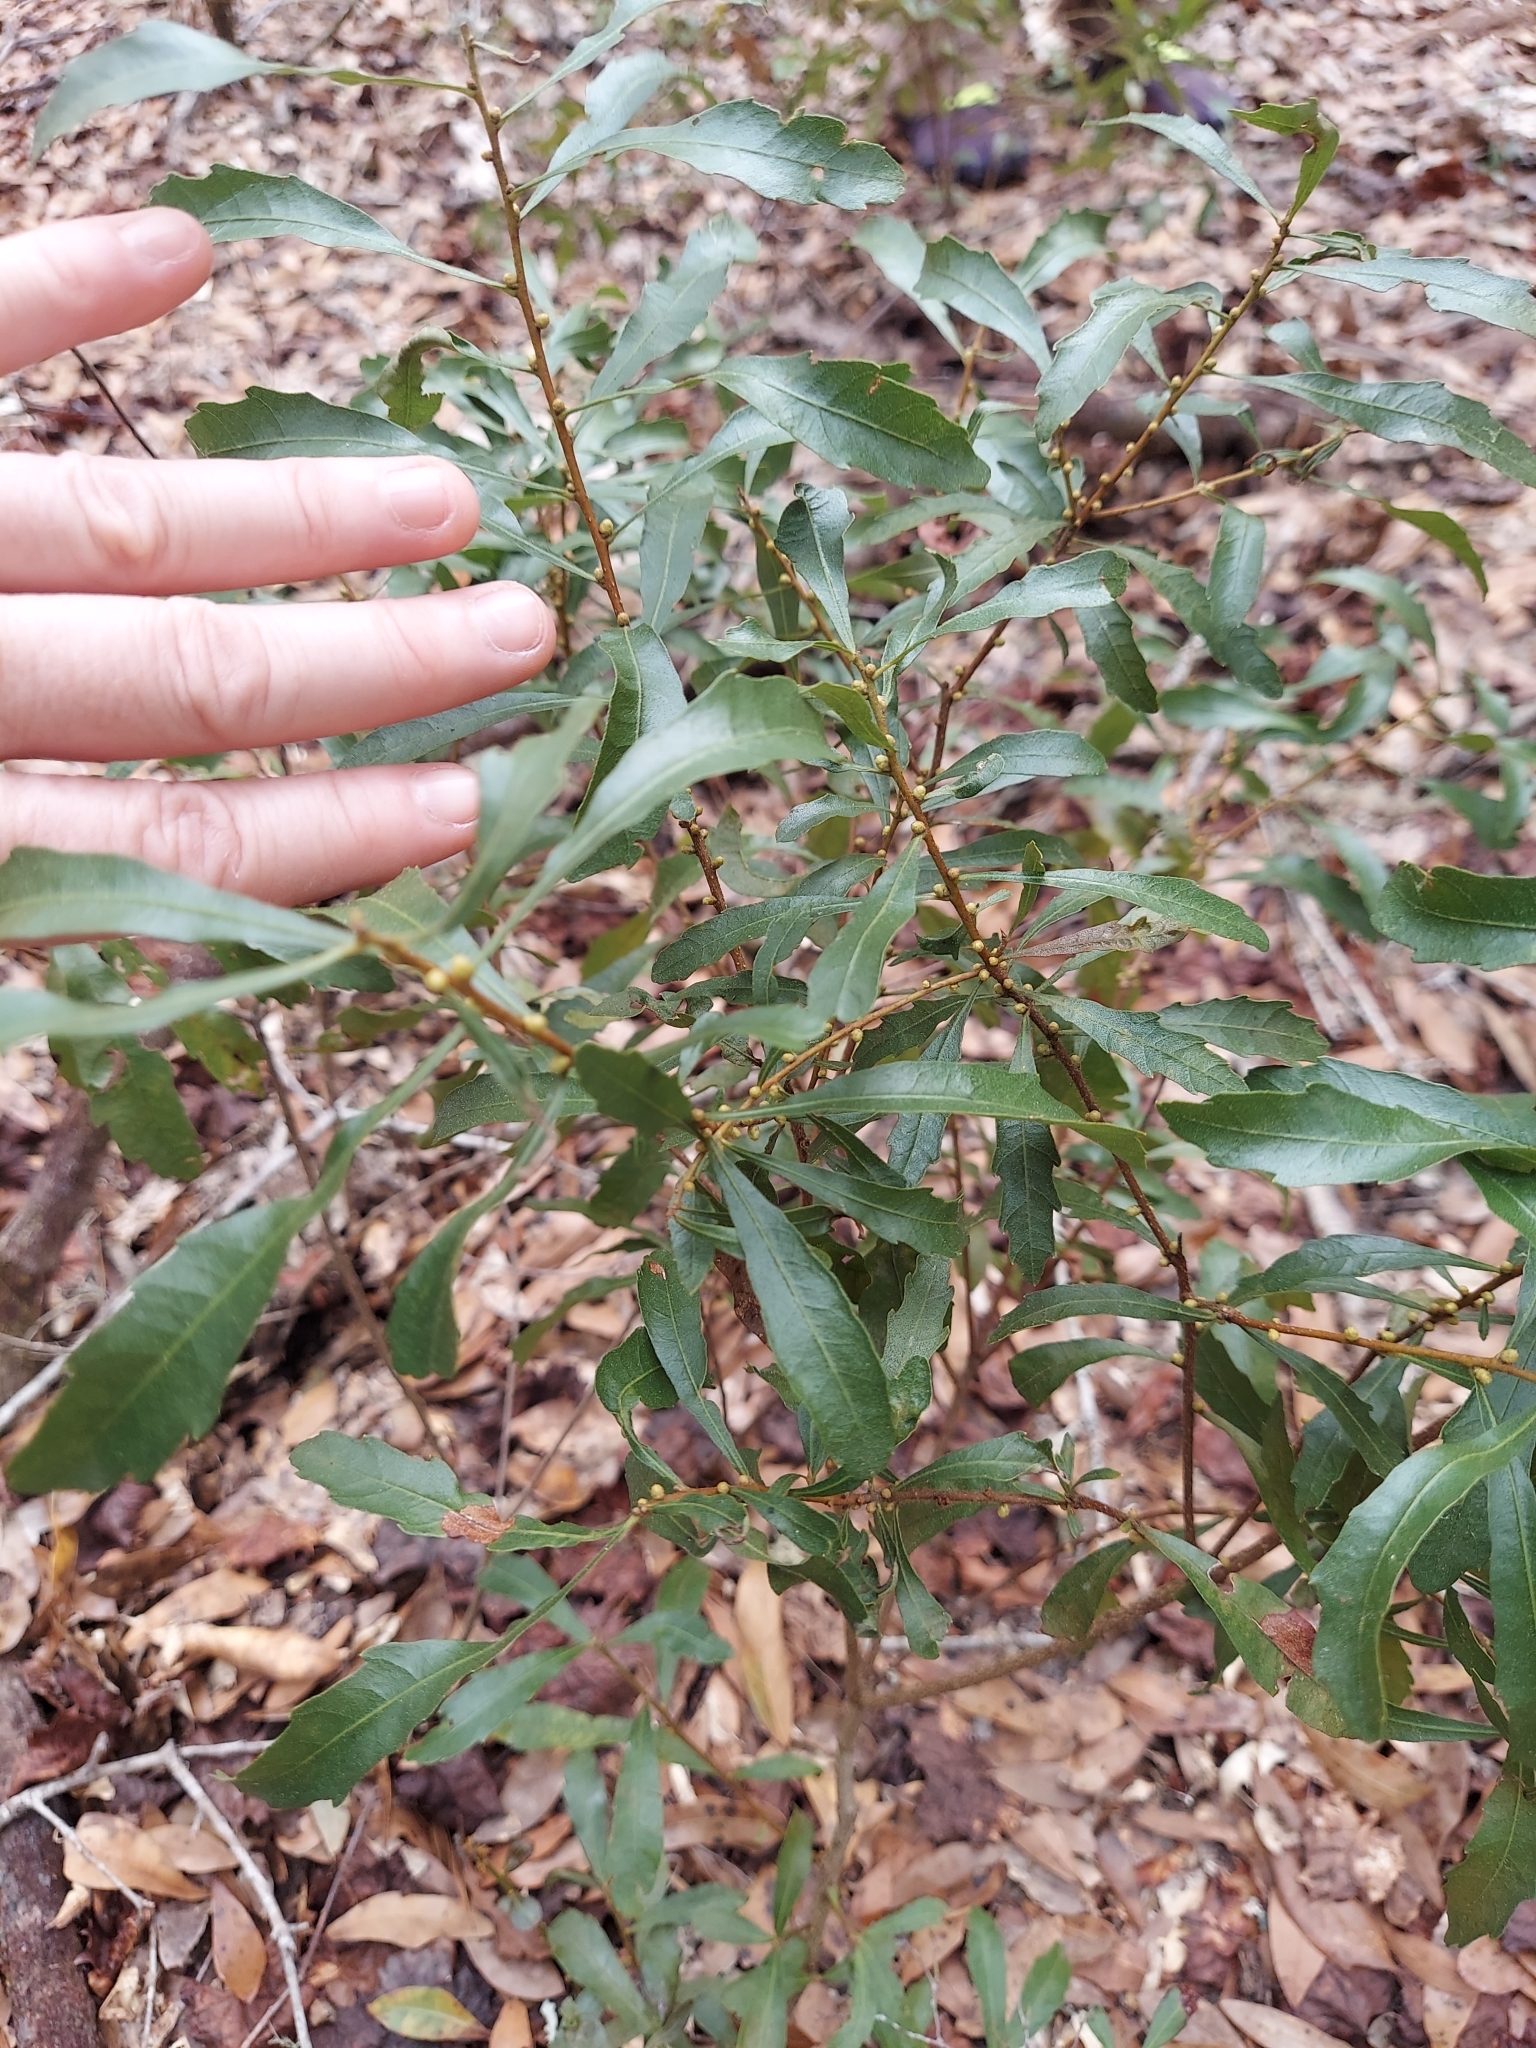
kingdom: Plantae
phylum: Tracheophyta
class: Magnoliopsida
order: Fagales
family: Myricaceae
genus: Morella
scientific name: Morella cerifera
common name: Wax myrtle
